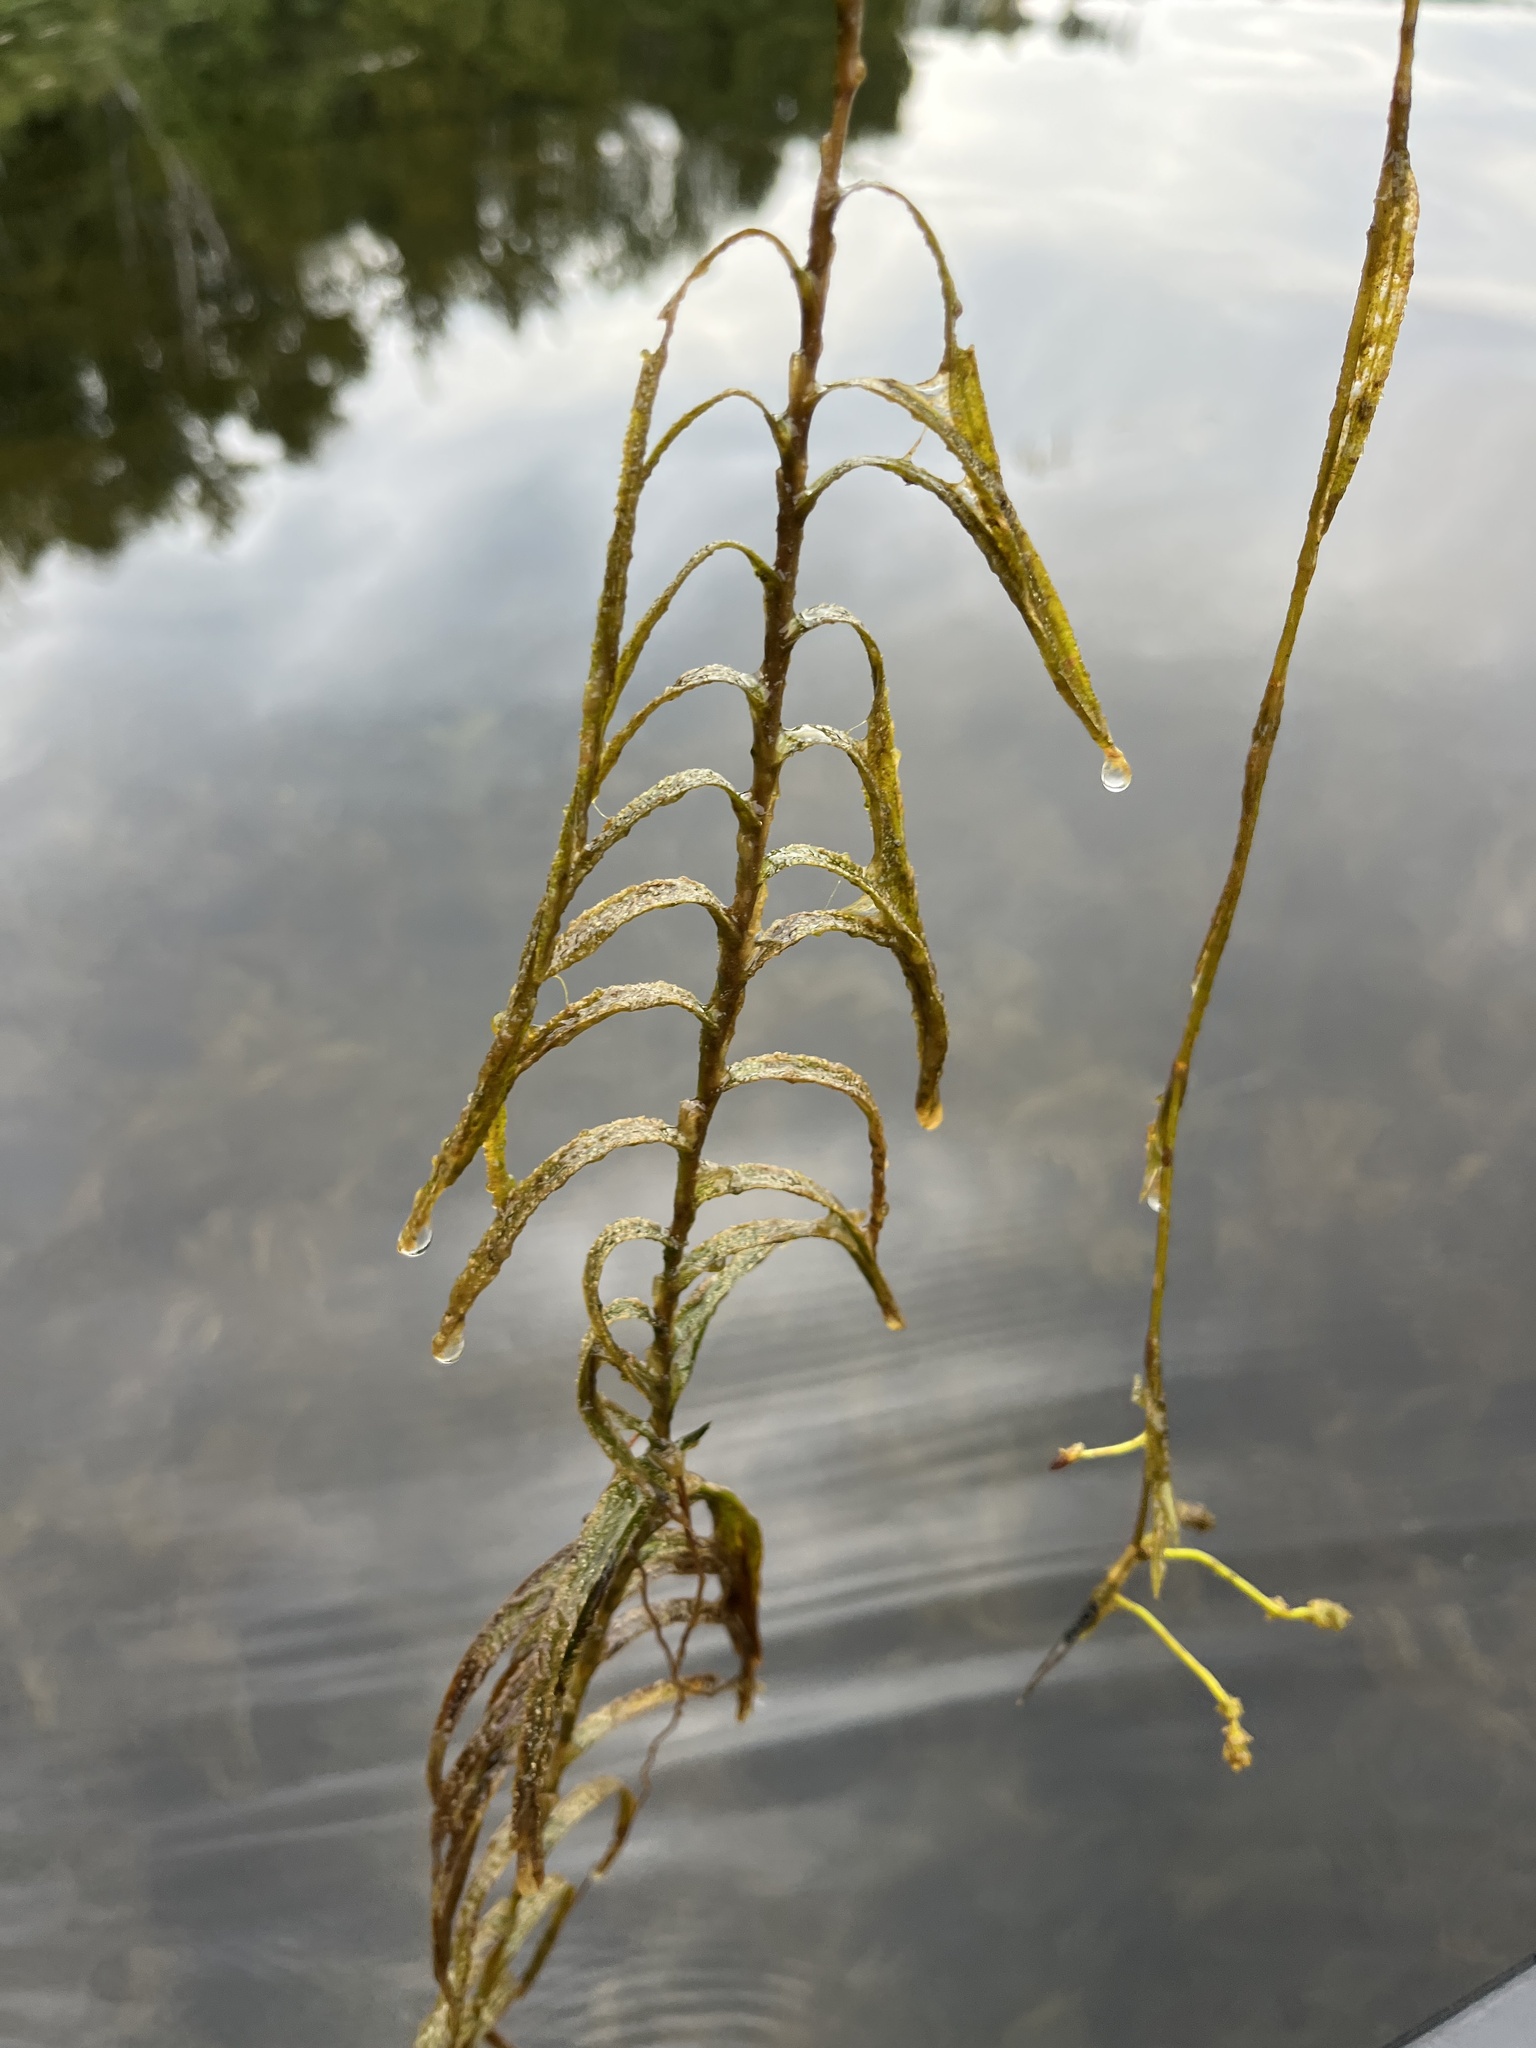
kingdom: Plantae
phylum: Tracheophyta
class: Liliopsida
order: Alismatales
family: Potamogetonaceae
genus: Potamogeton
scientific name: Potamogeton robbinsii
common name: Fern pondweed
